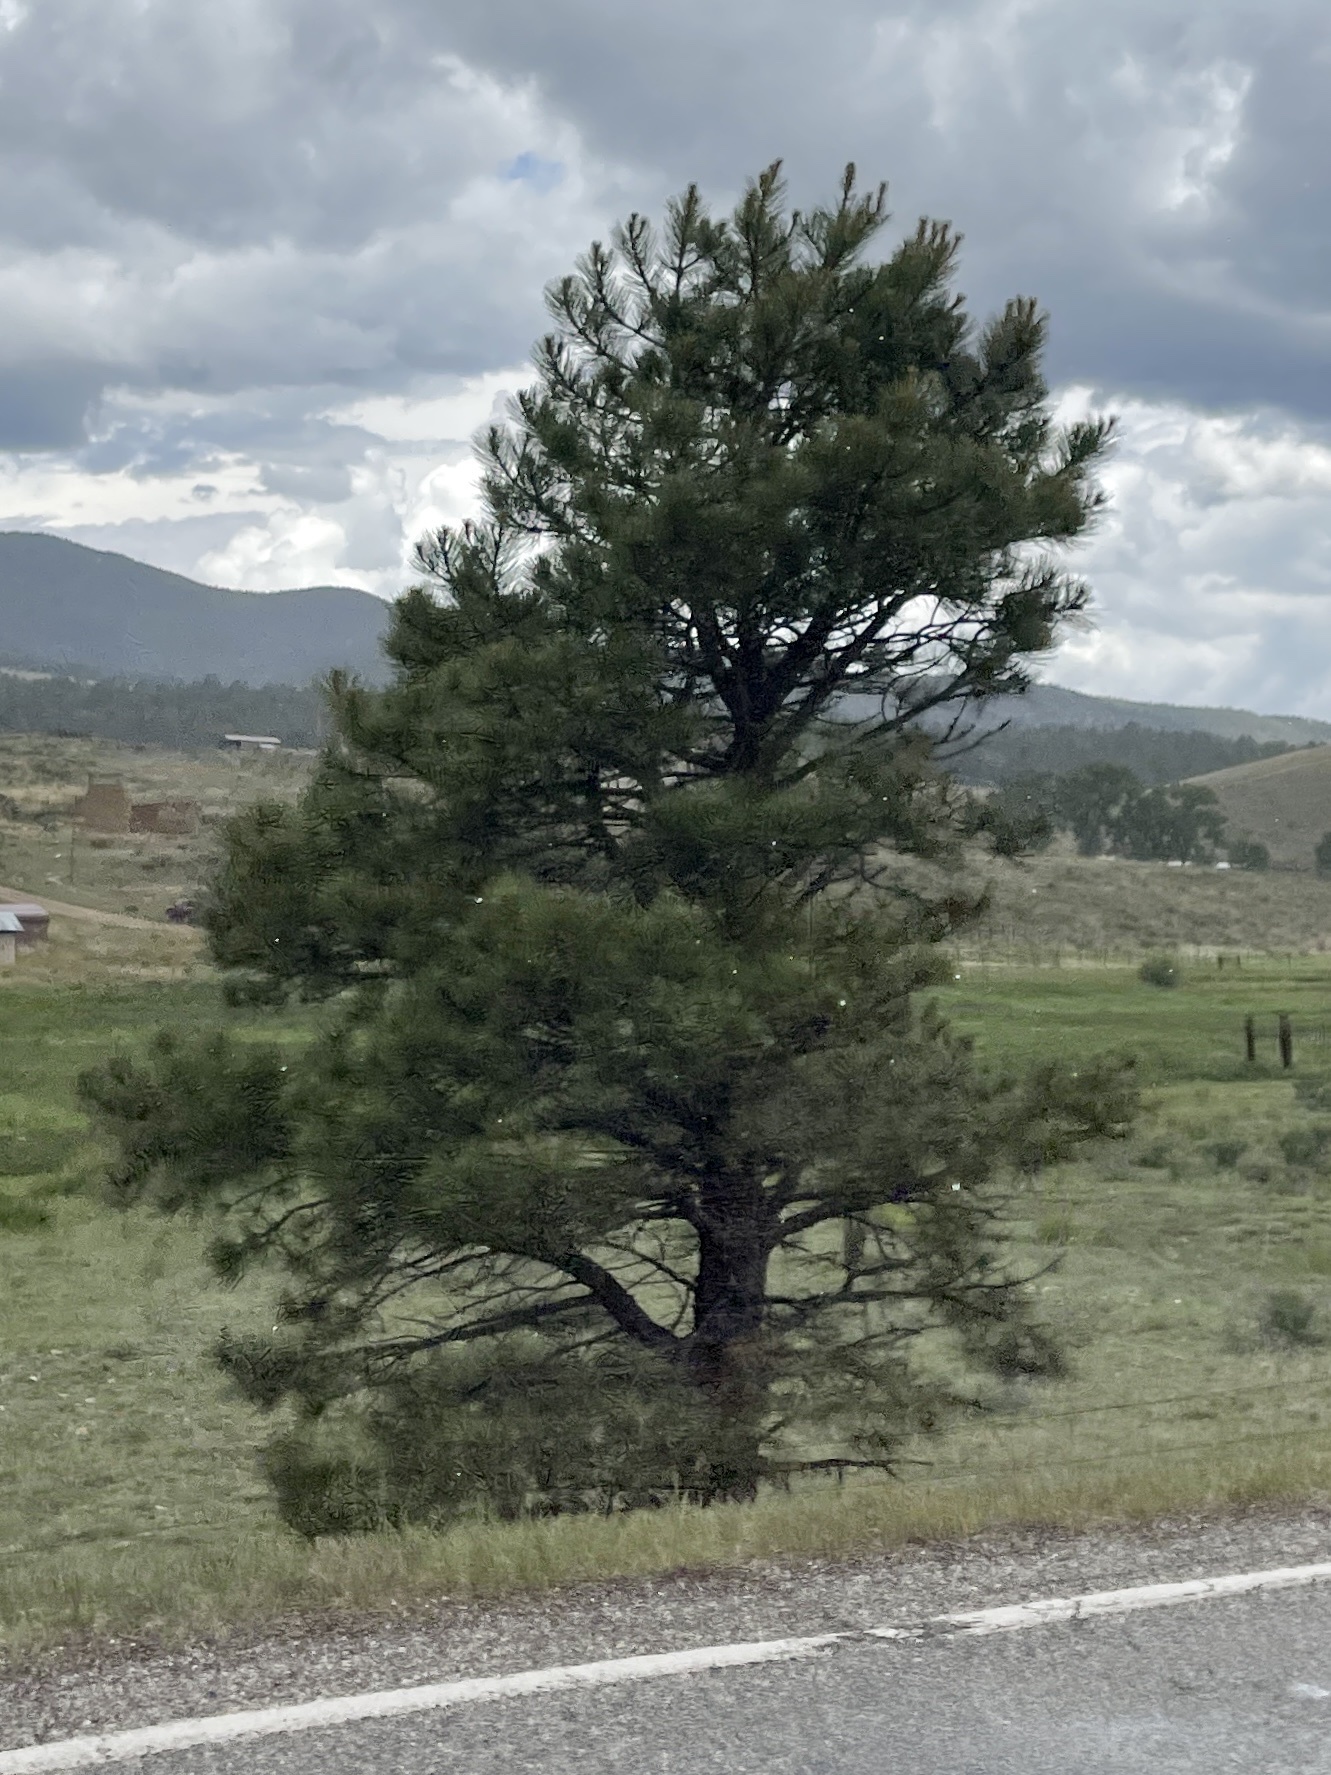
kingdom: Plantae
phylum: Tracheophyta
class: Pinopsida
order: Pinales
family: Pinaceae
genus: Pinus
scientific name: Pinus ponderosa
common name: Western yellow-pine
